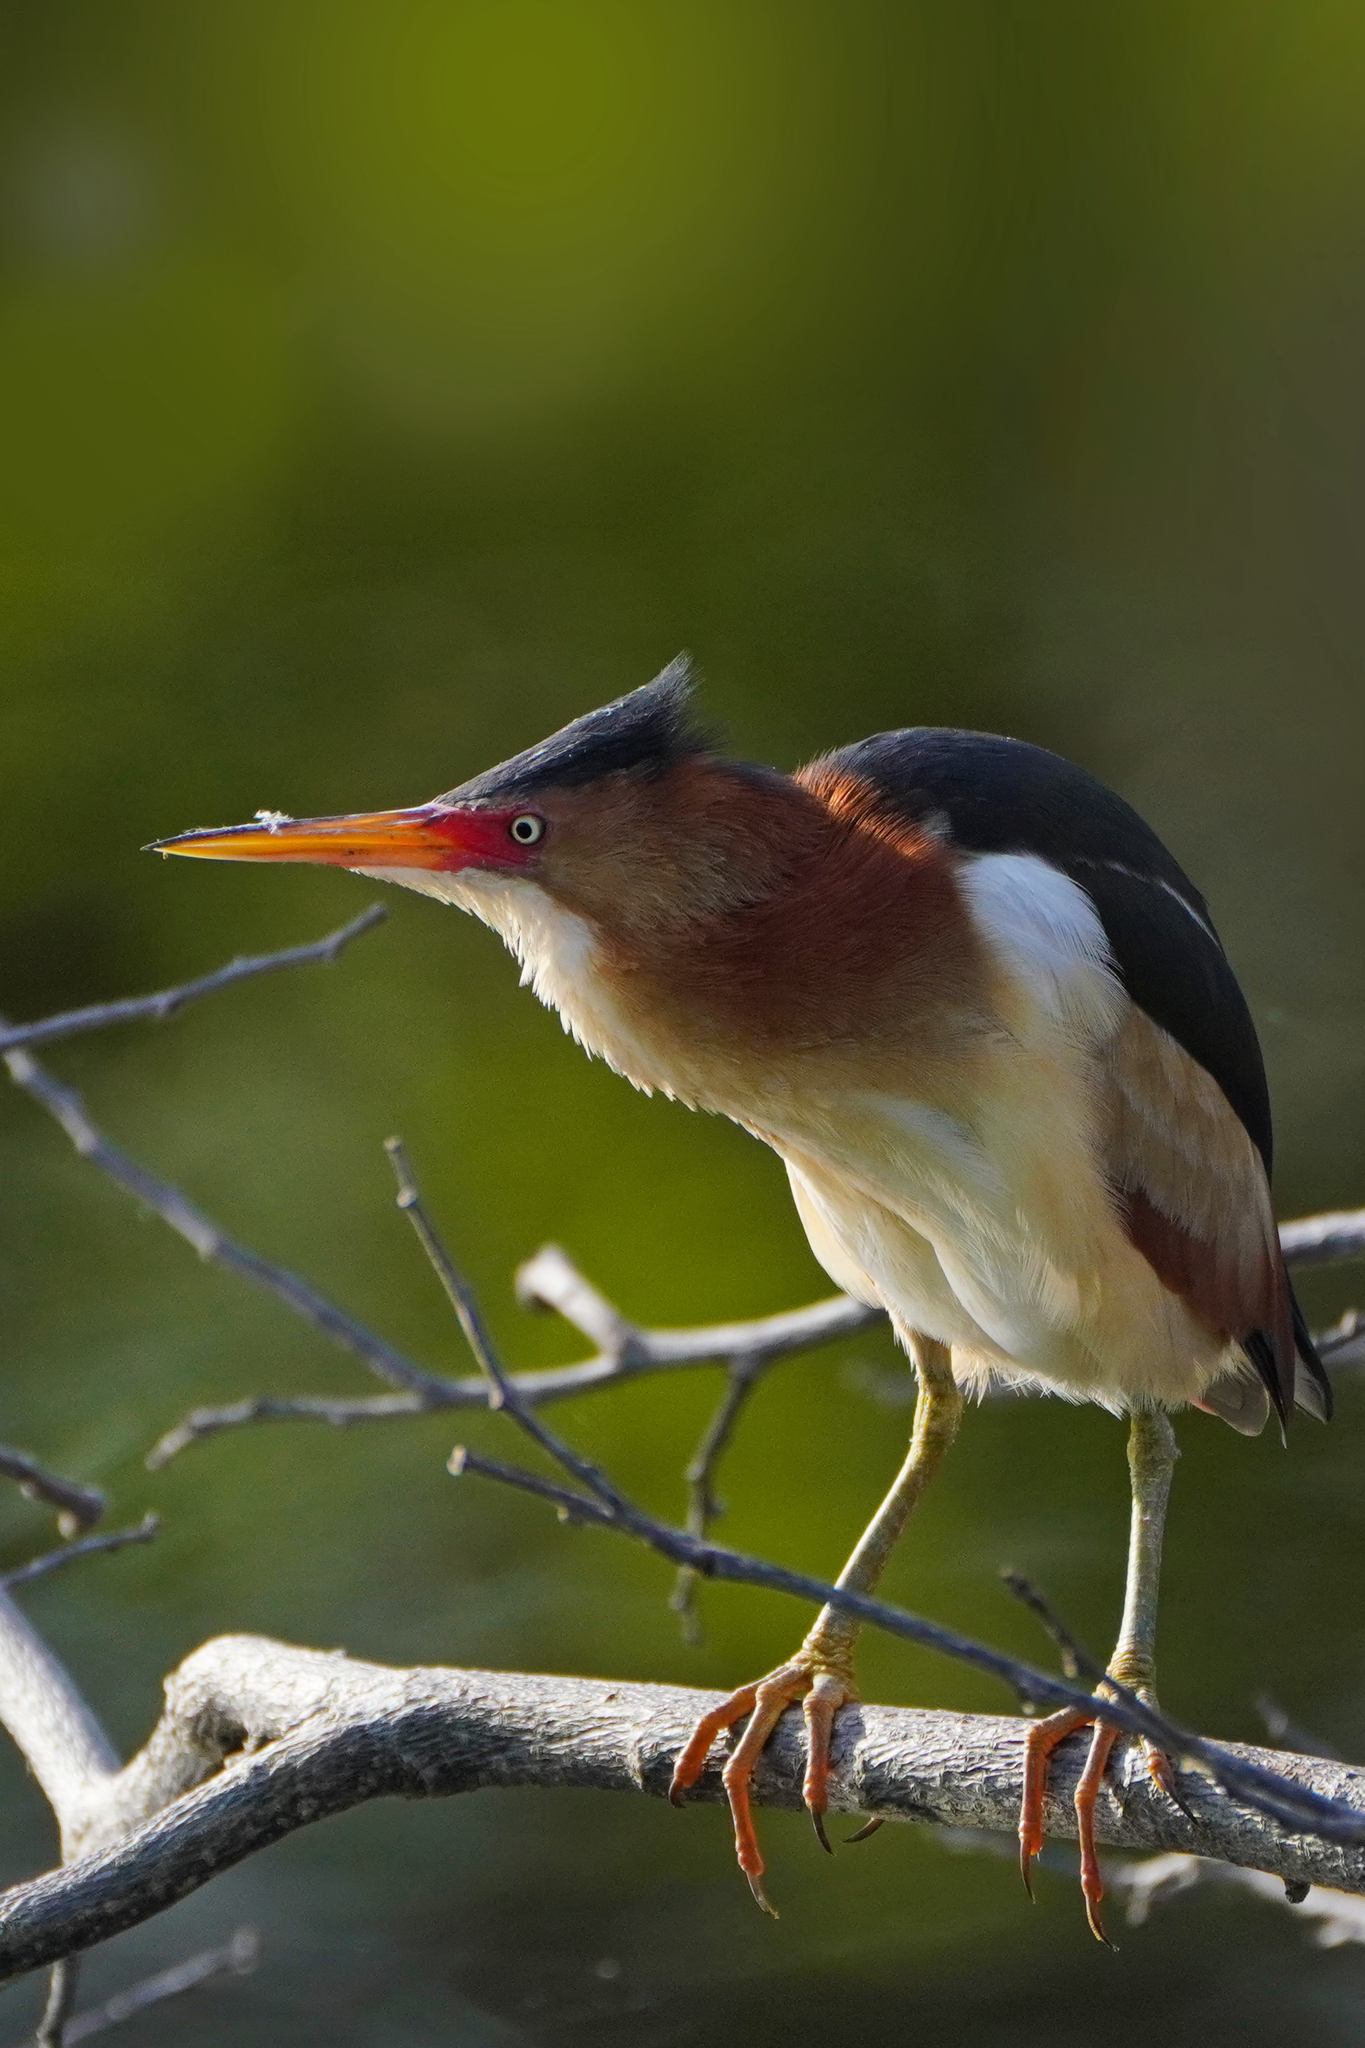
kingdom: Animalia
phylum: Chordata
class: Aves
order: Pelecaniformes
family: Ardeidae
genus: Ixobrychus
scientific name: Ixobrychus exilis
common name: Least bittern
